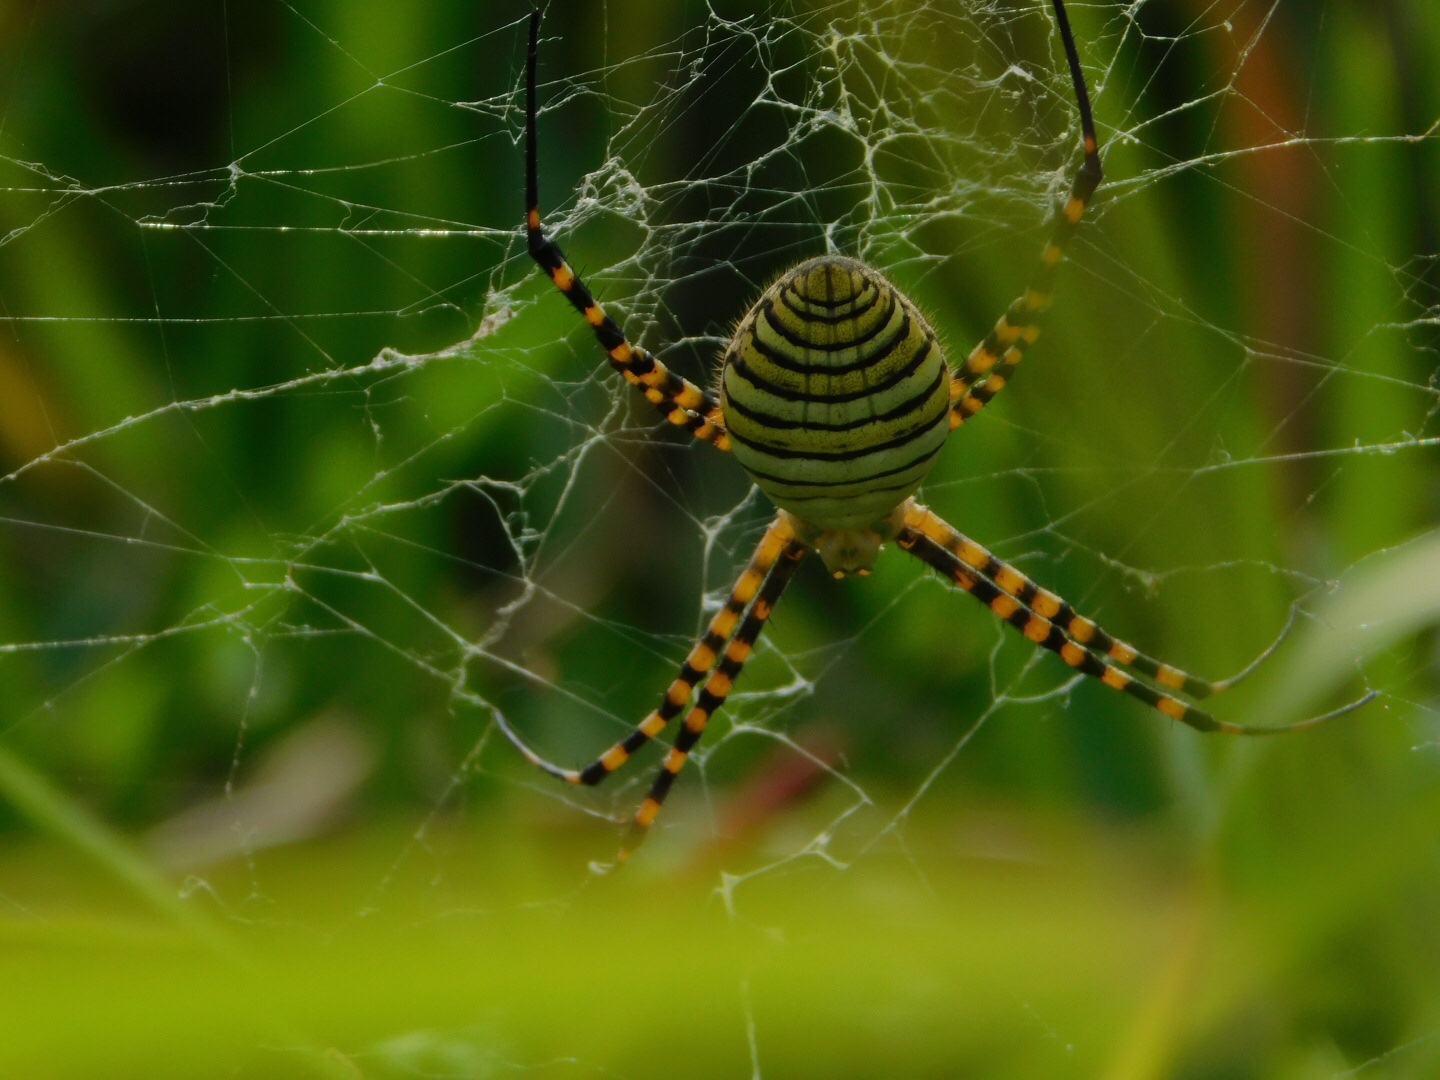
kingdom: Animalia
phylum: Arthropoda
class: Arachnida
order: Araneae
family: Araneidae
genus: Argiope
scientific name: Argiope trifasciata
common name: Banded garden spider
